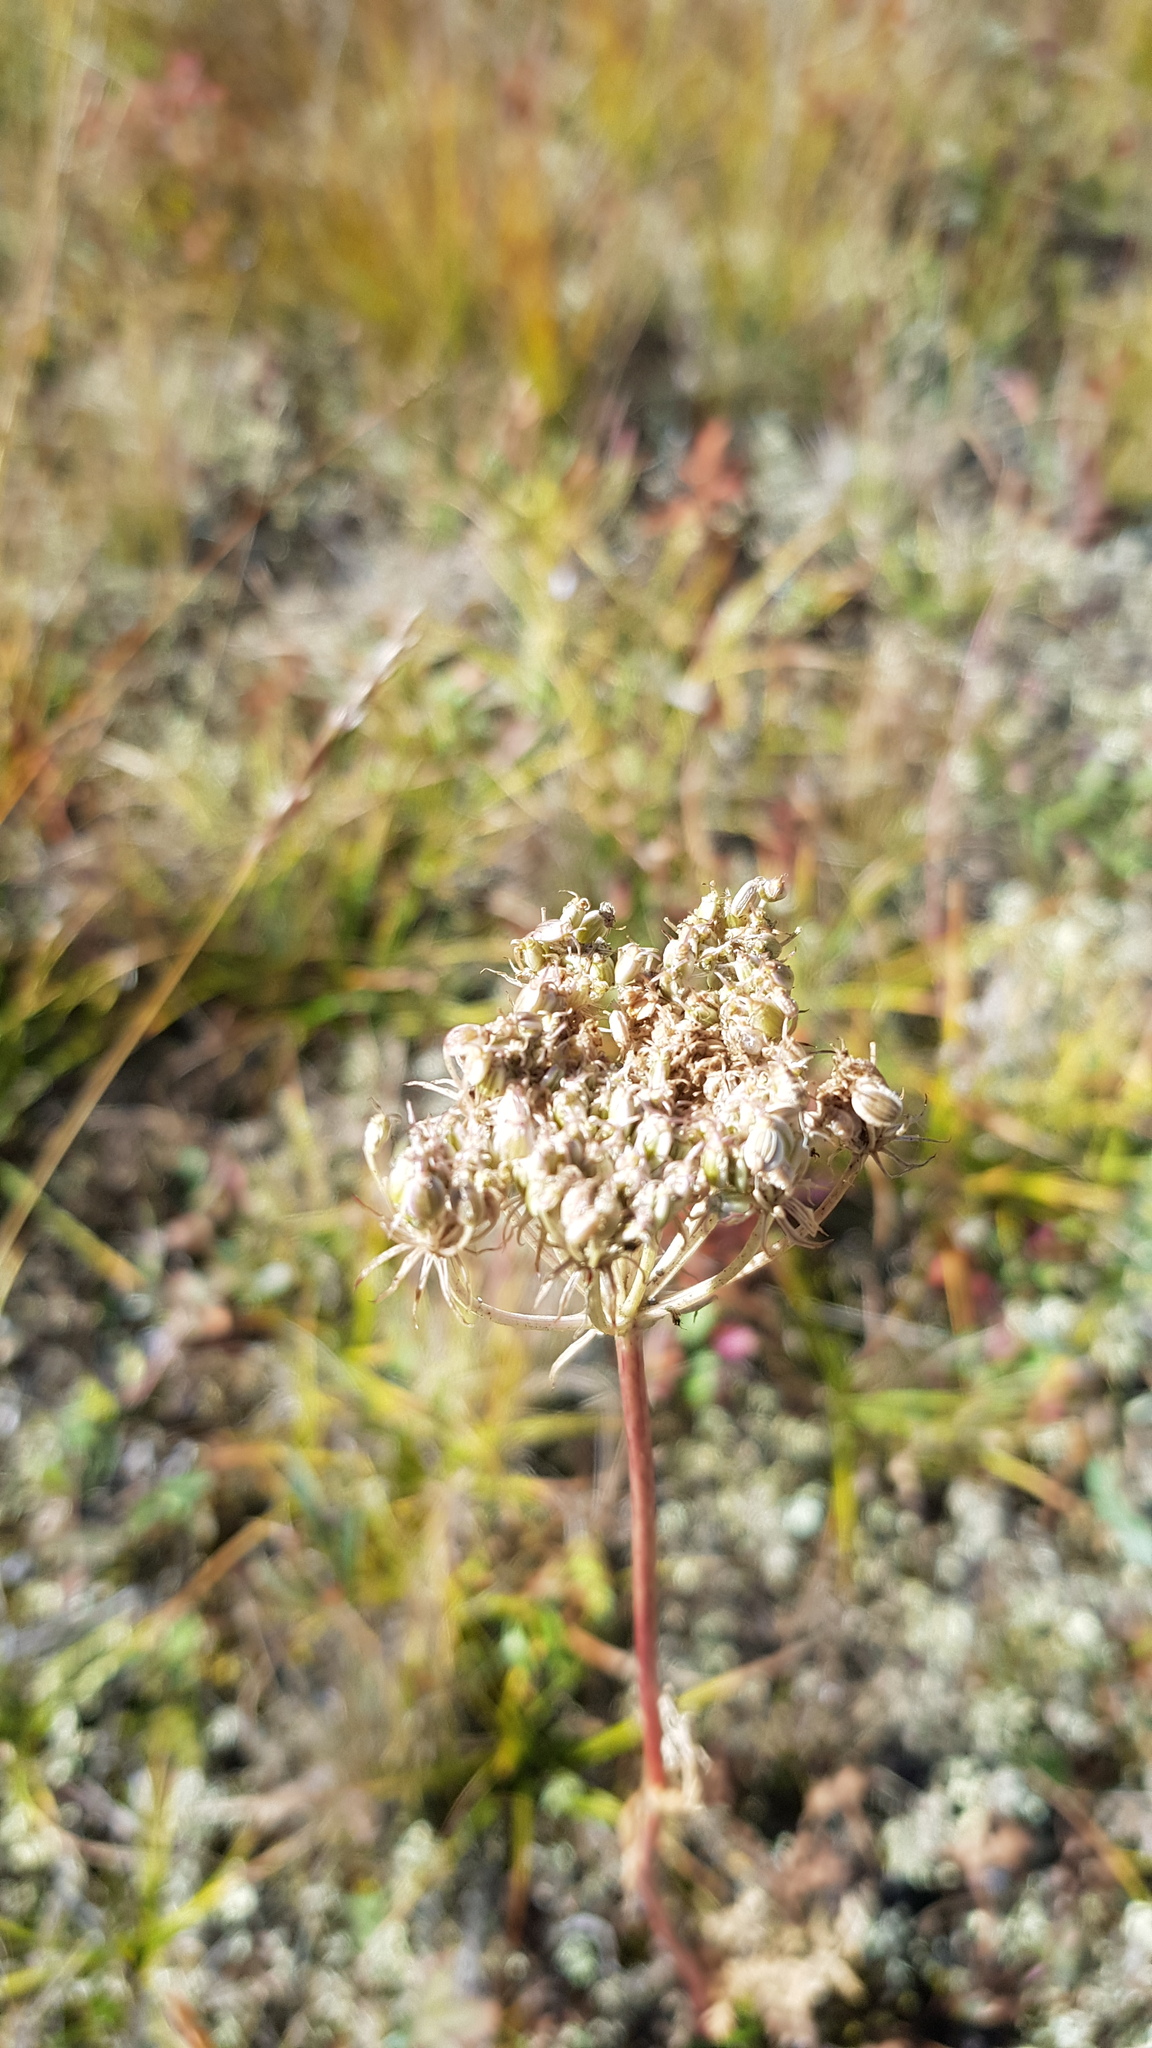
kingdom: Plantae
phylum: Tracheophyta
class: Magnoliopsida
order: Apiales
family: Apiaceae
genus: Kitagawia
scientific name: Kitagawia baicalensis
